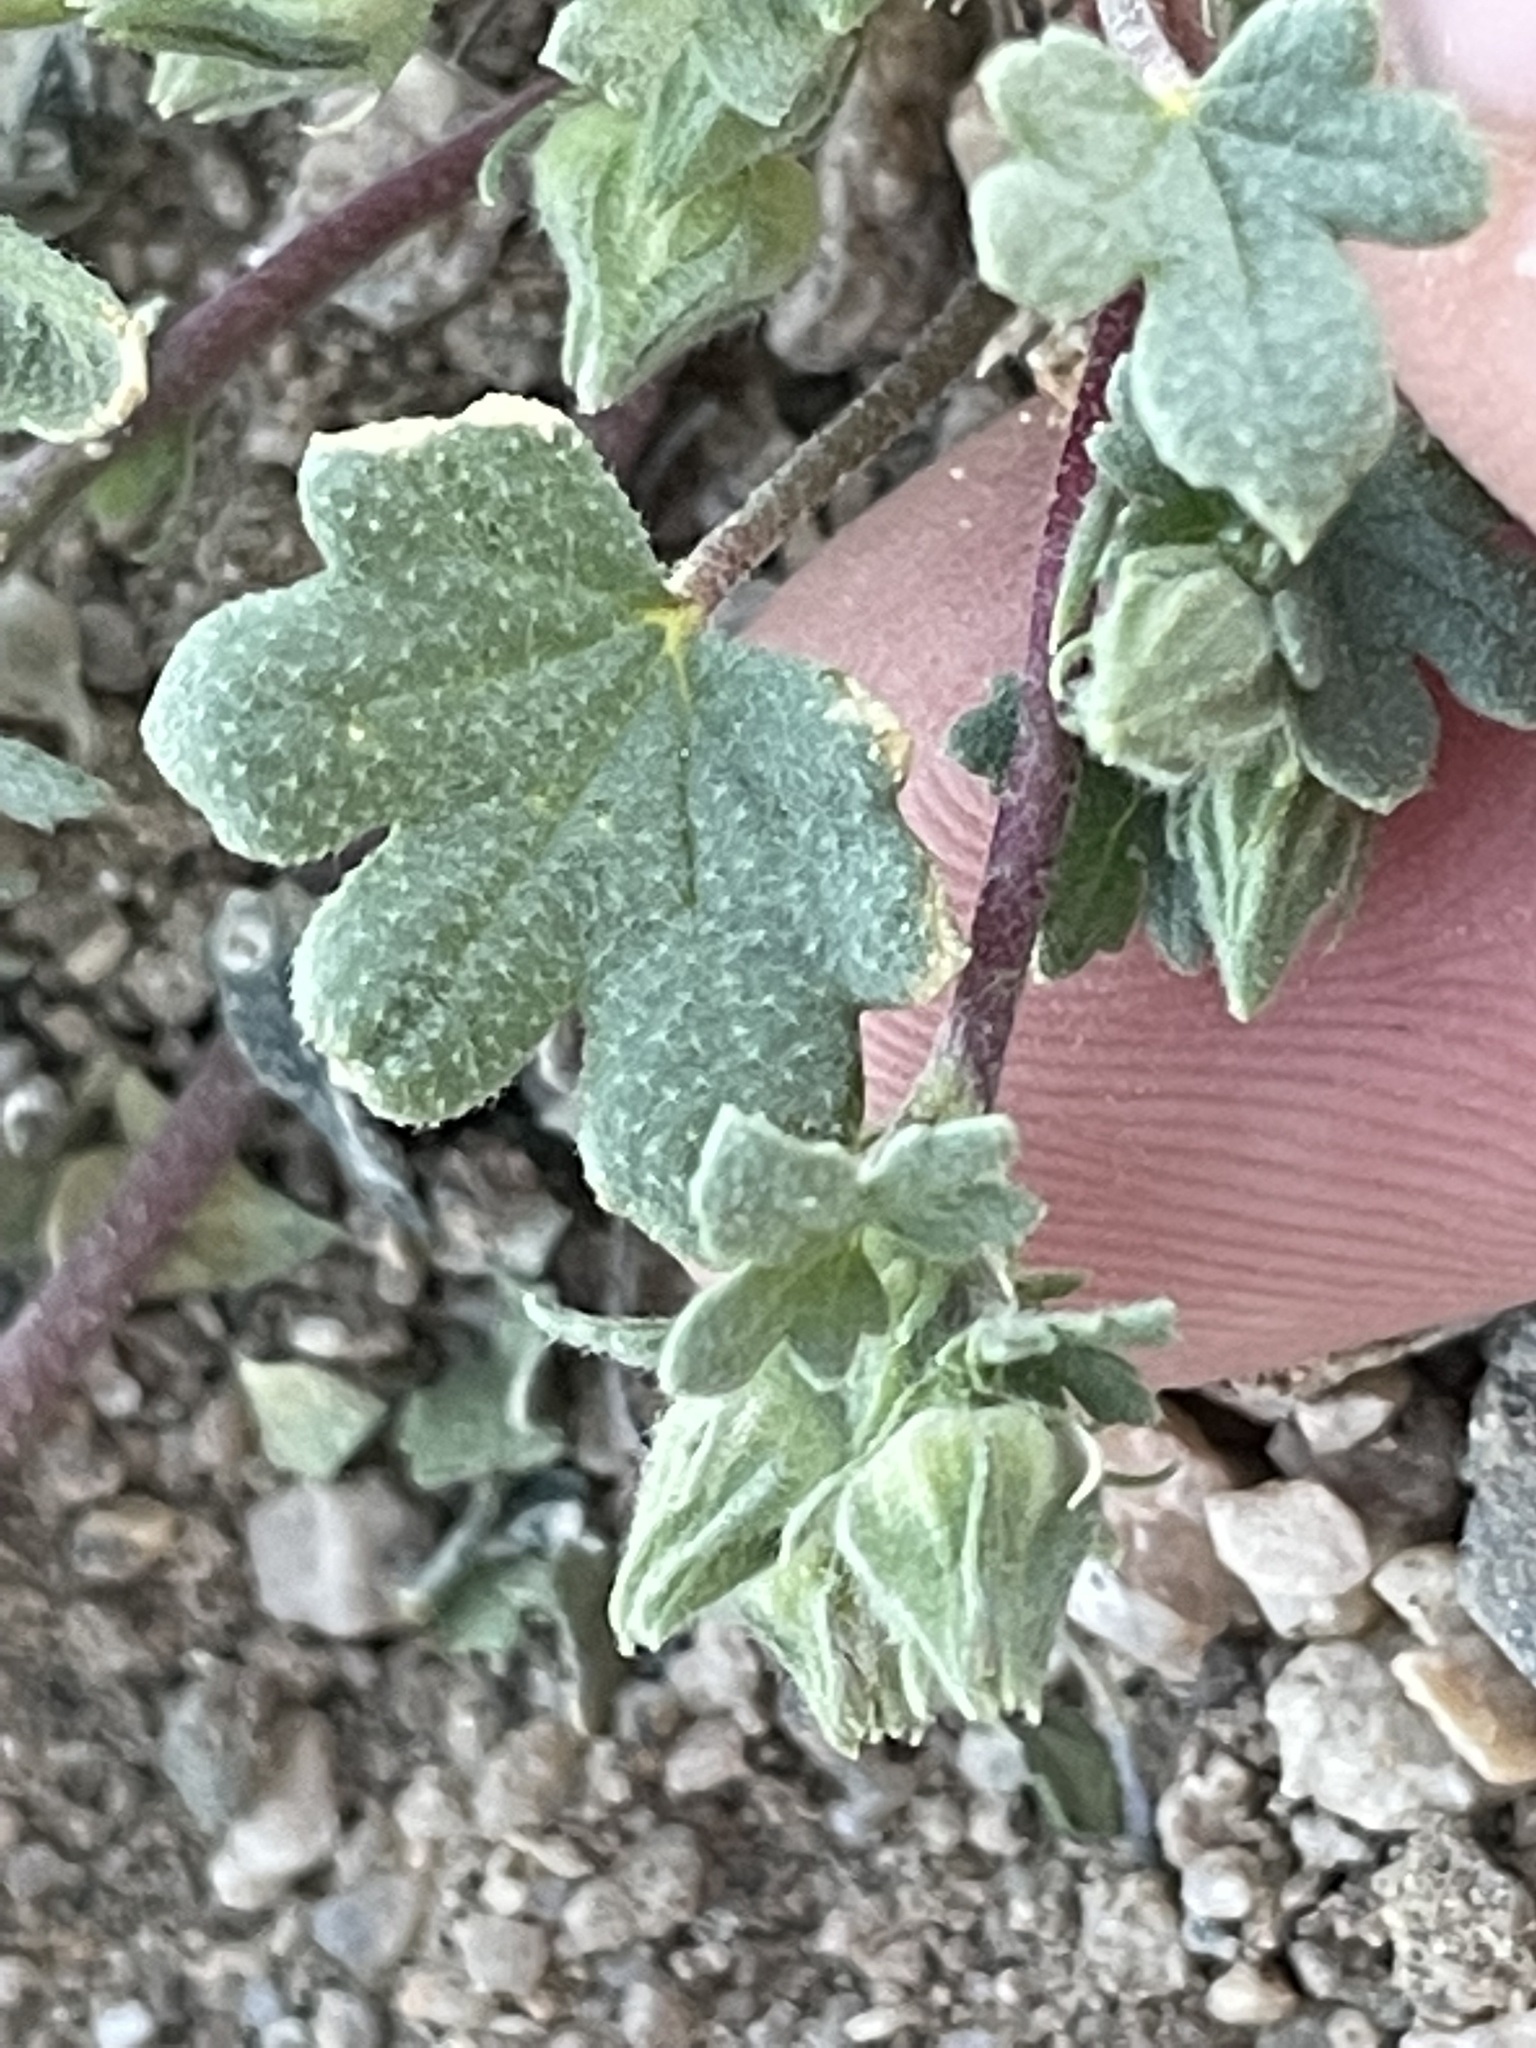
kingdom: Plantae
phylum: Tracheophyta
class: Magnoliopsida
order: Malvales
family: Malvaceae
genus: Eremalche
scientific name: Eremalche exilis
